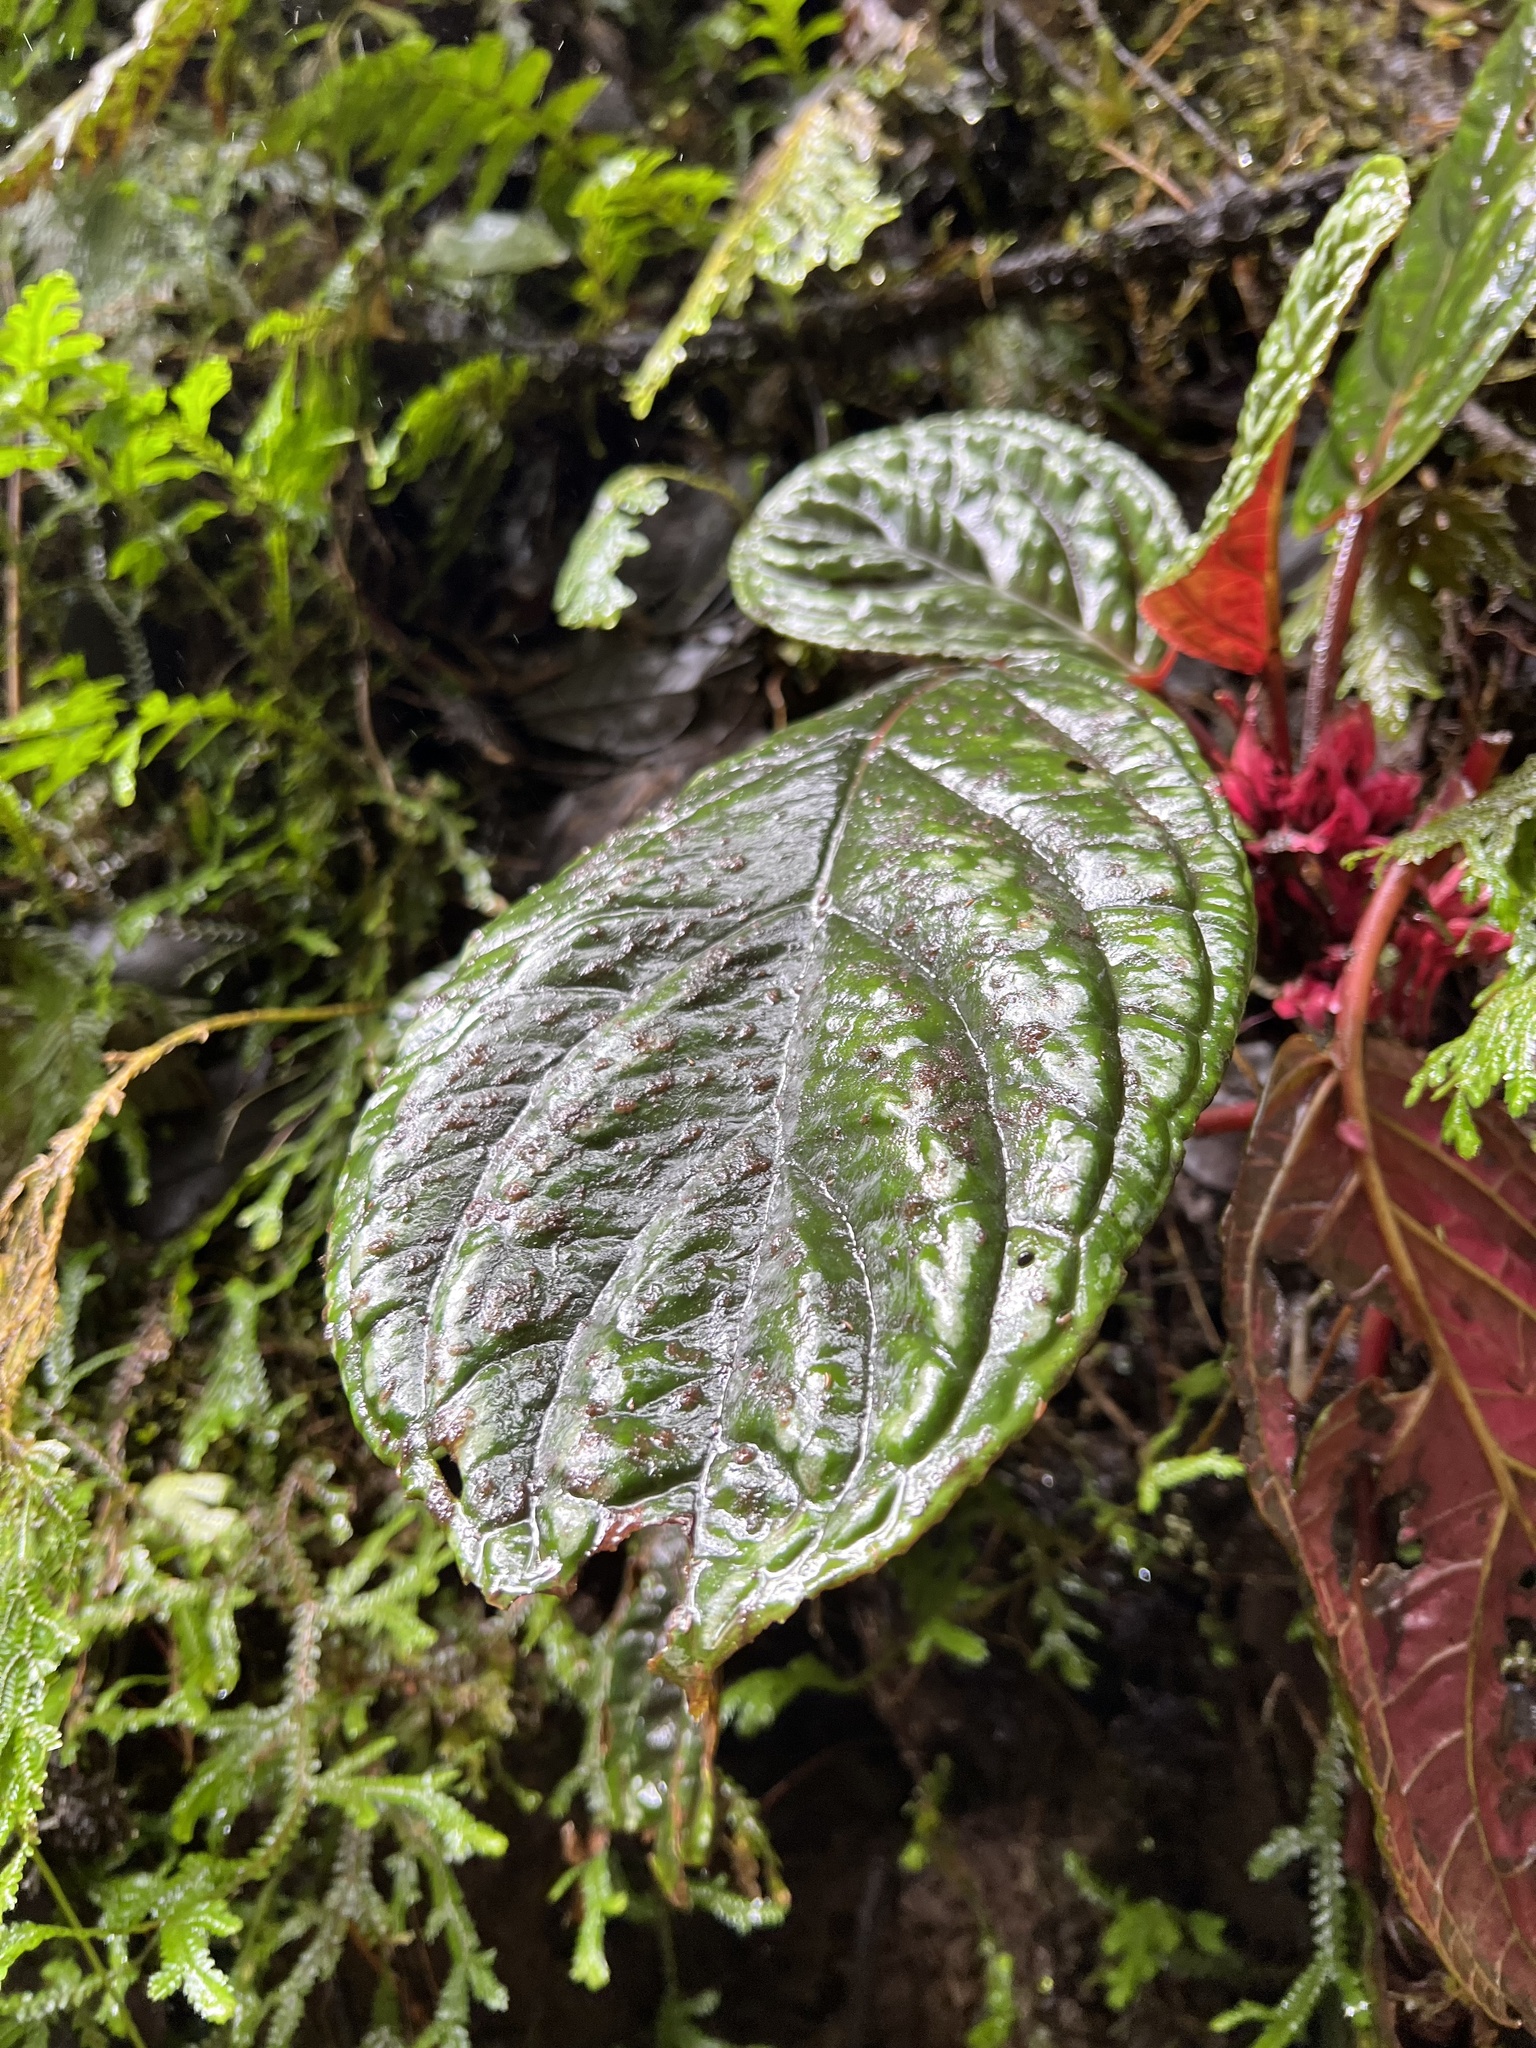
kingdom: Plantae
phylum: Tracheophyta
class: Magnoliopsida
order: Lamiales
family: Gesneriaceae
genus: Drymonia
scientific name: Drymonia turrialvae
